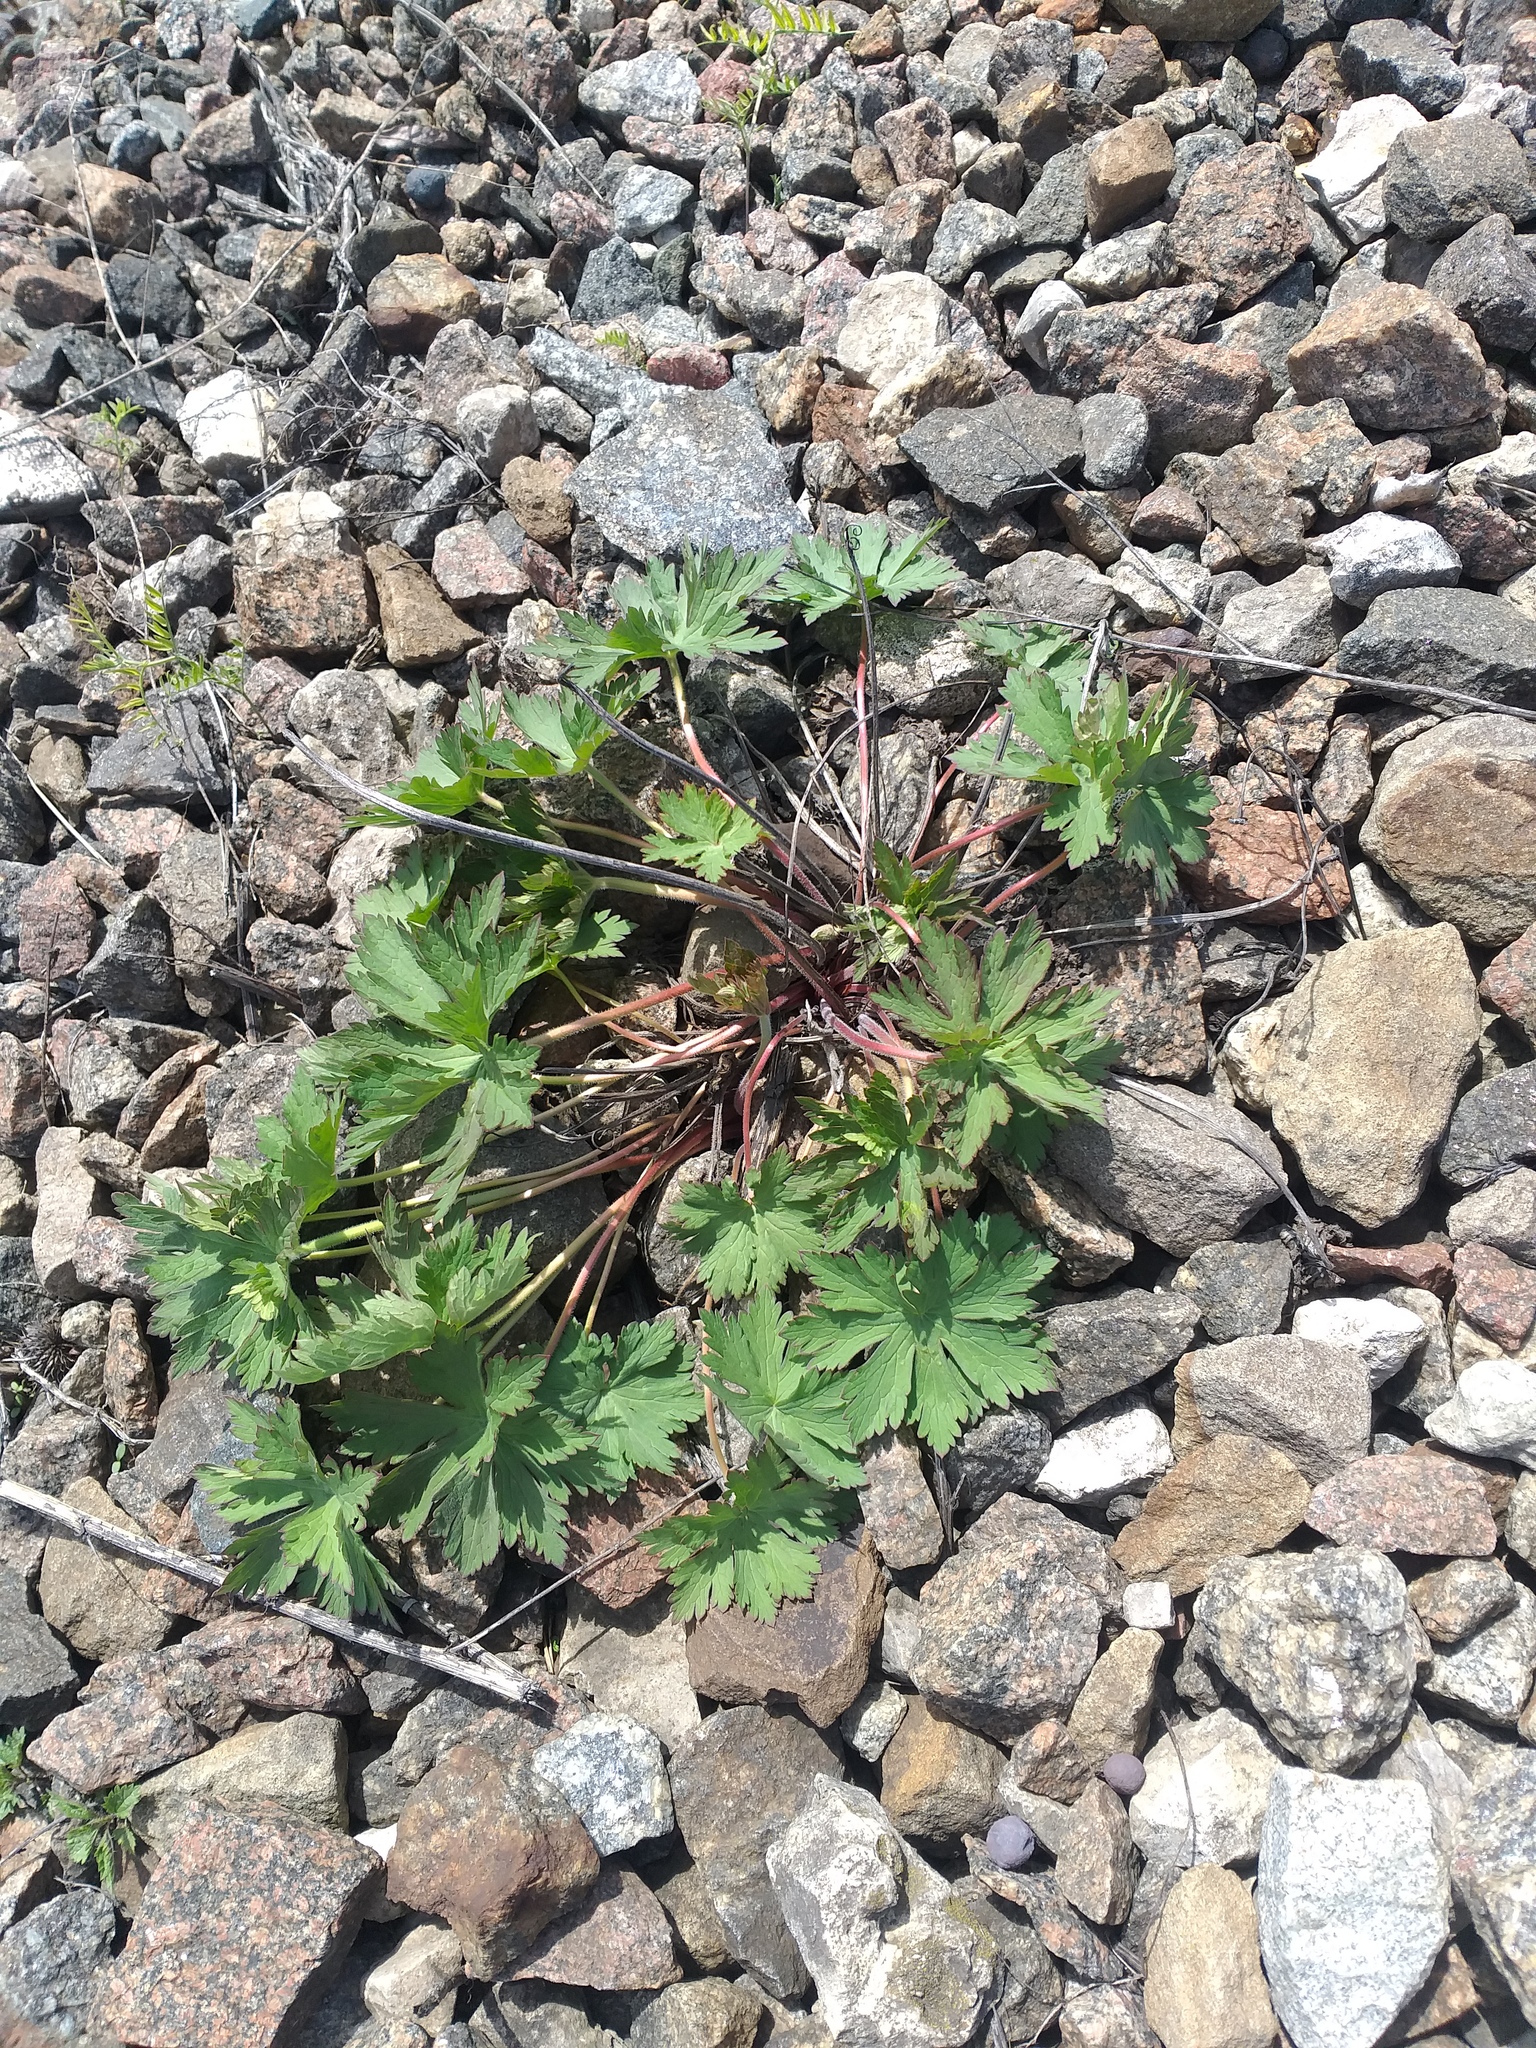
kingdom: Plantae
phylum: Tracheophyta
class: Magnoliopsida
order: Geraniales
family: Geraniaceae
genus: Geranium
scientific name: Geranium pratense
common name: Meadow crane's-bill
